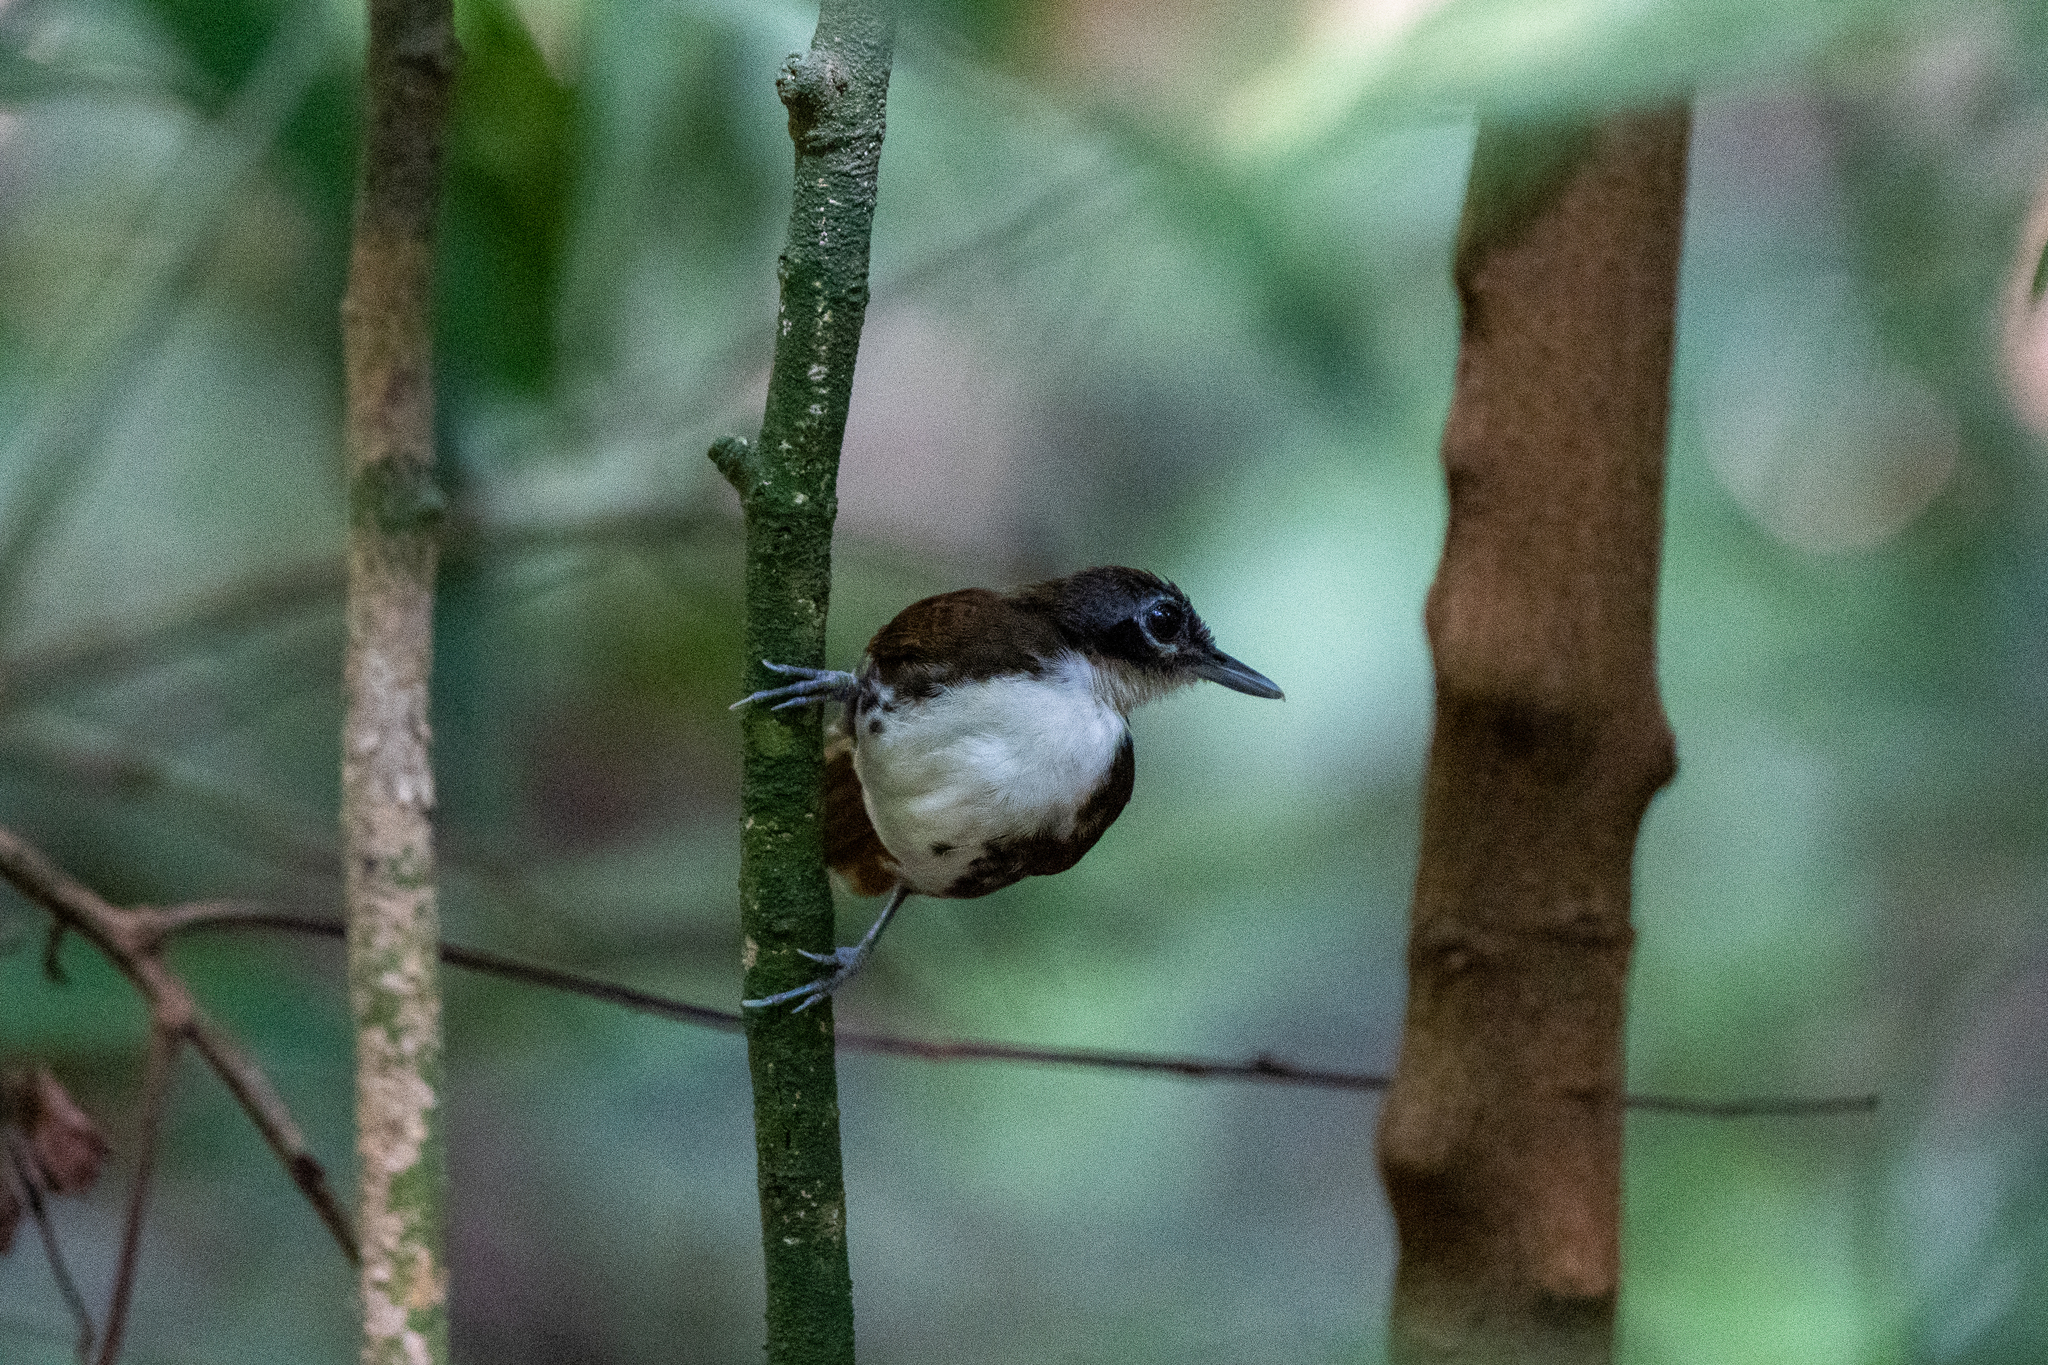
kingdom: Animalia
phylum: Chordata
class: Aves
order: Passeriformes
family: Thamnophilidae
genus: Gymnopithys
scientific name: Gymnopithys leucaspis
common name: White-cheeked antbird
